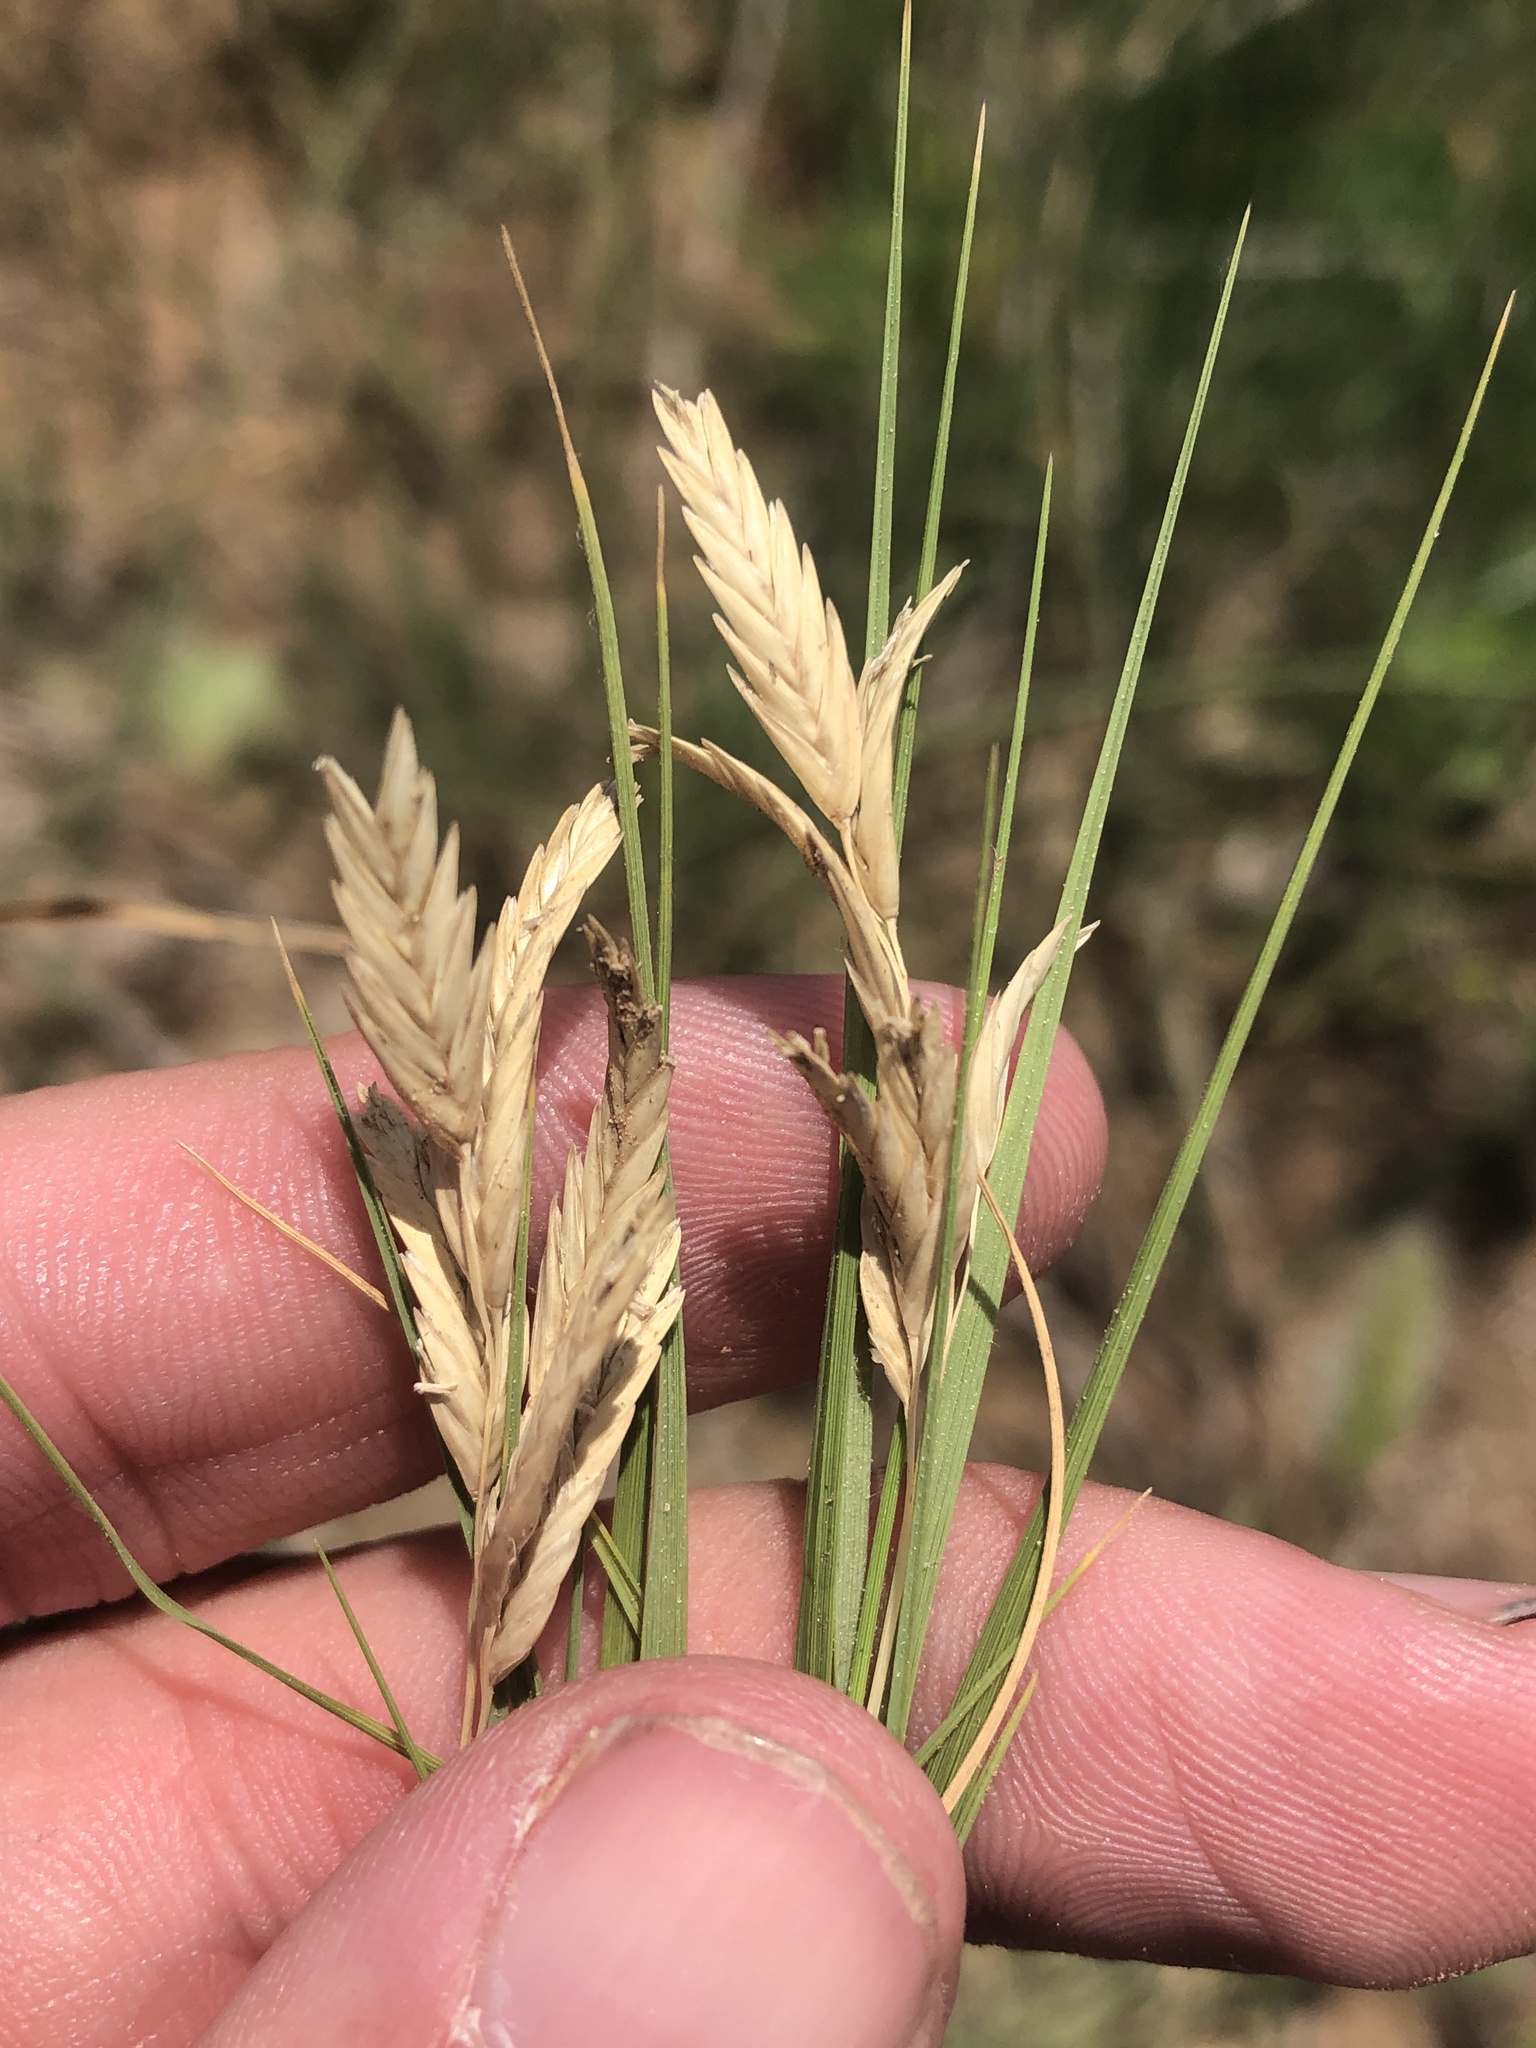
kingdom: Plantae
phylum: Tracheophyta
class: Liliopsida
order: Poales
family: Poaceae
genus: Distichlis
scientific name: Distichlis spicata
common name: Saltgrass
